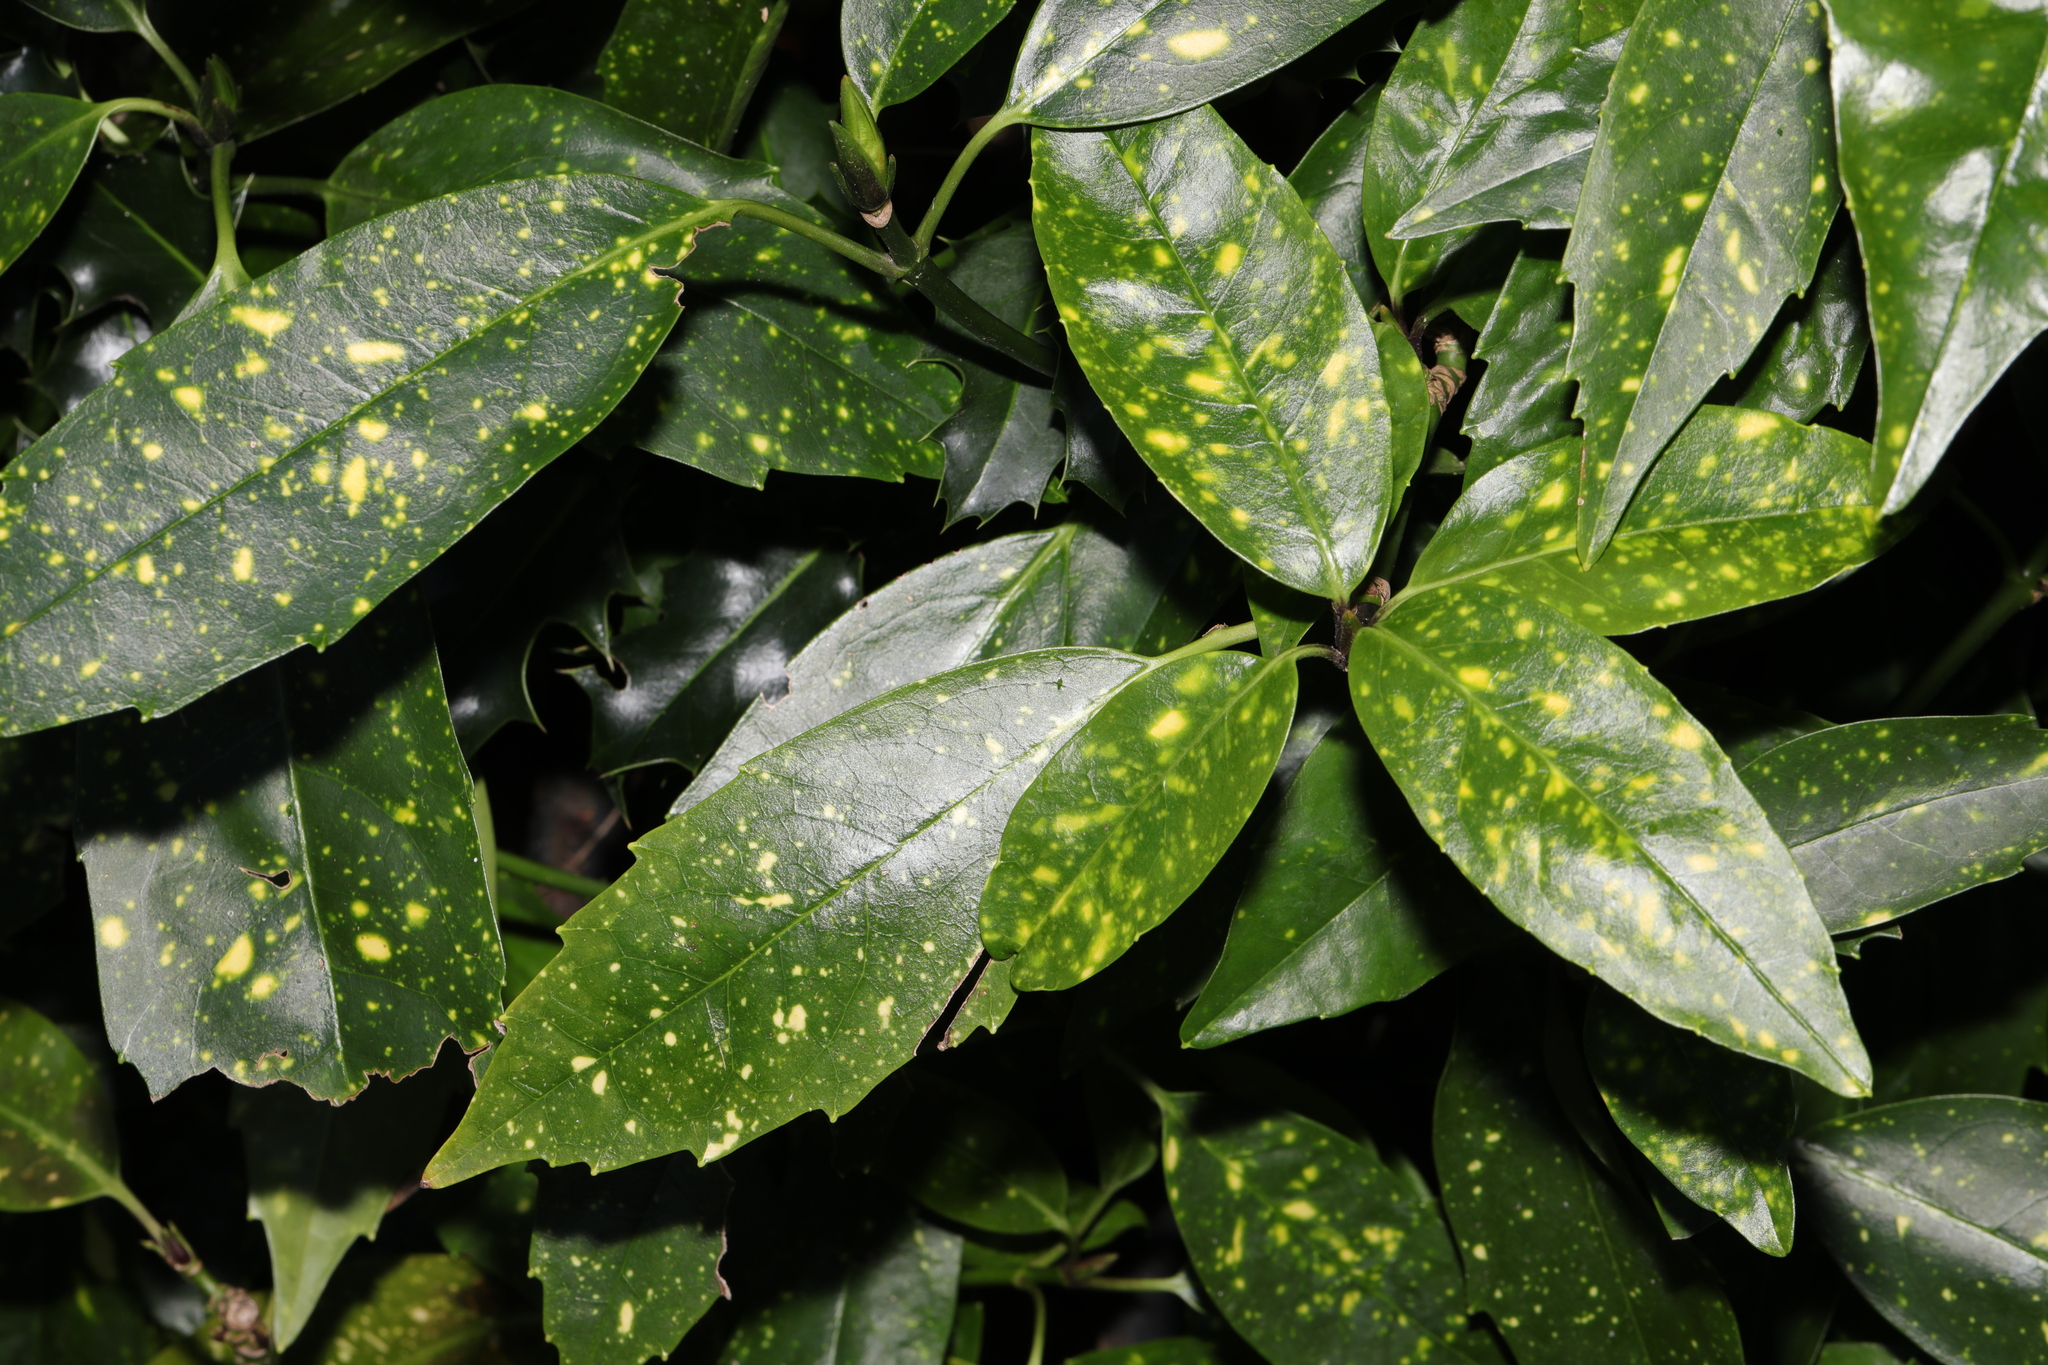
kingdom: Plantae
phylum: Tracheophyta
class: Magnoliopsida
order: Garryales
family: Garryaceae
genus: Aucuba
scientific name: Aucuba japonica
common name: Spotted-laurel
